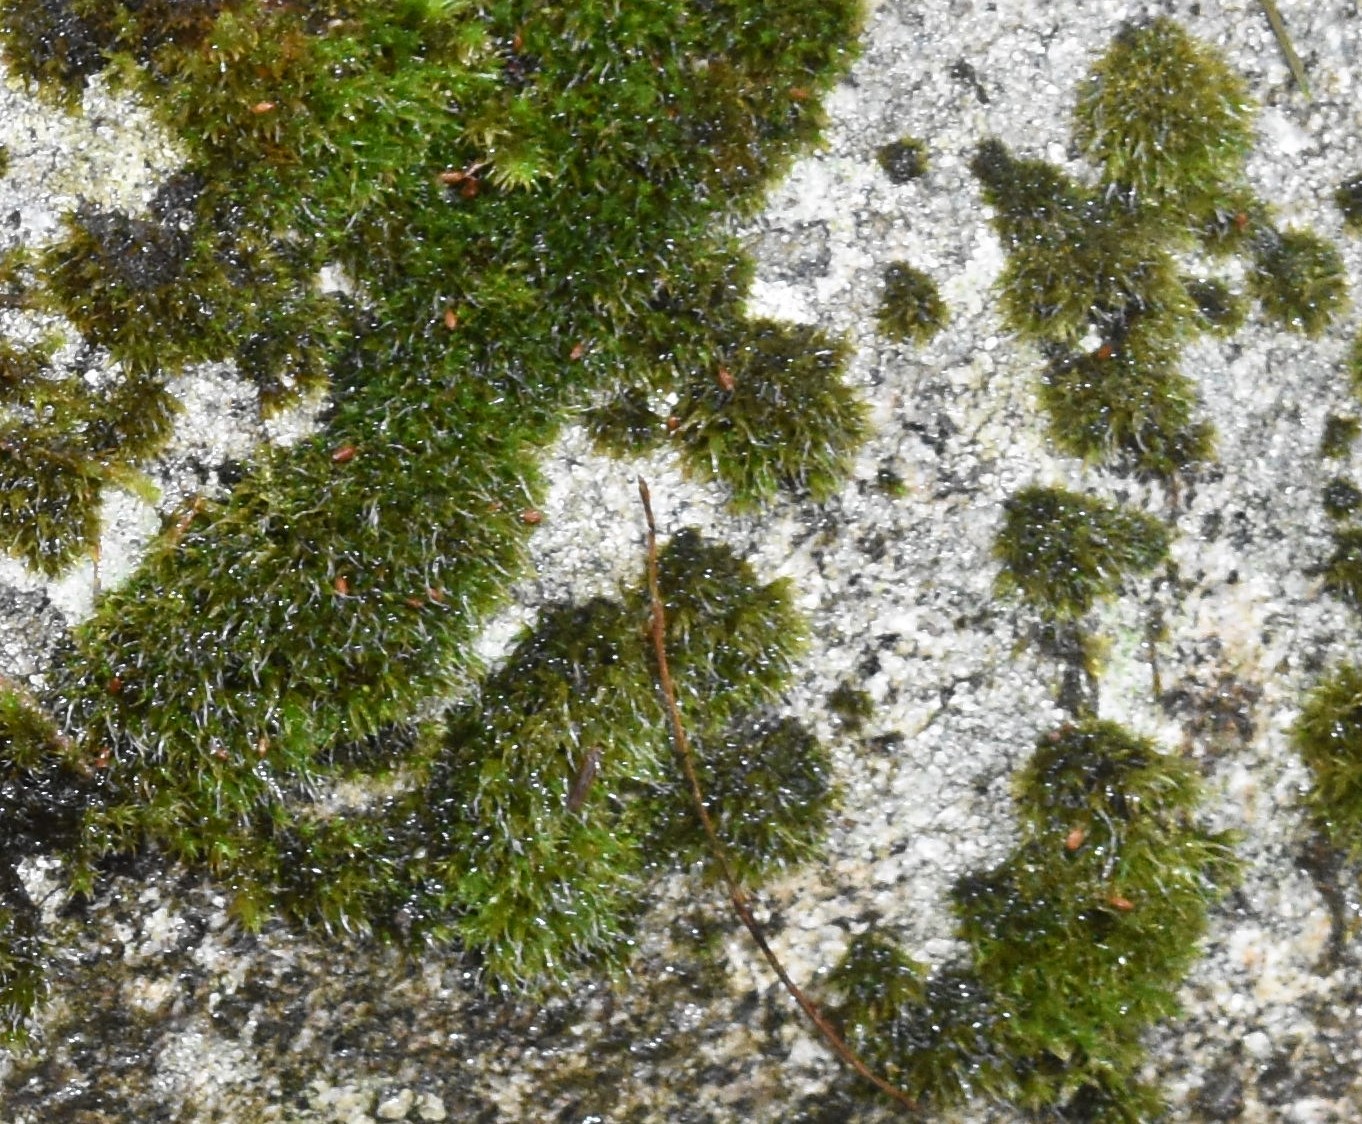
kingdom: Plantae
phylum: Bryophyta
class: Bryopsida
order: Grimmiales
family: Grimmiaceae
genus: Grimmia
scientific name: Grimmia
